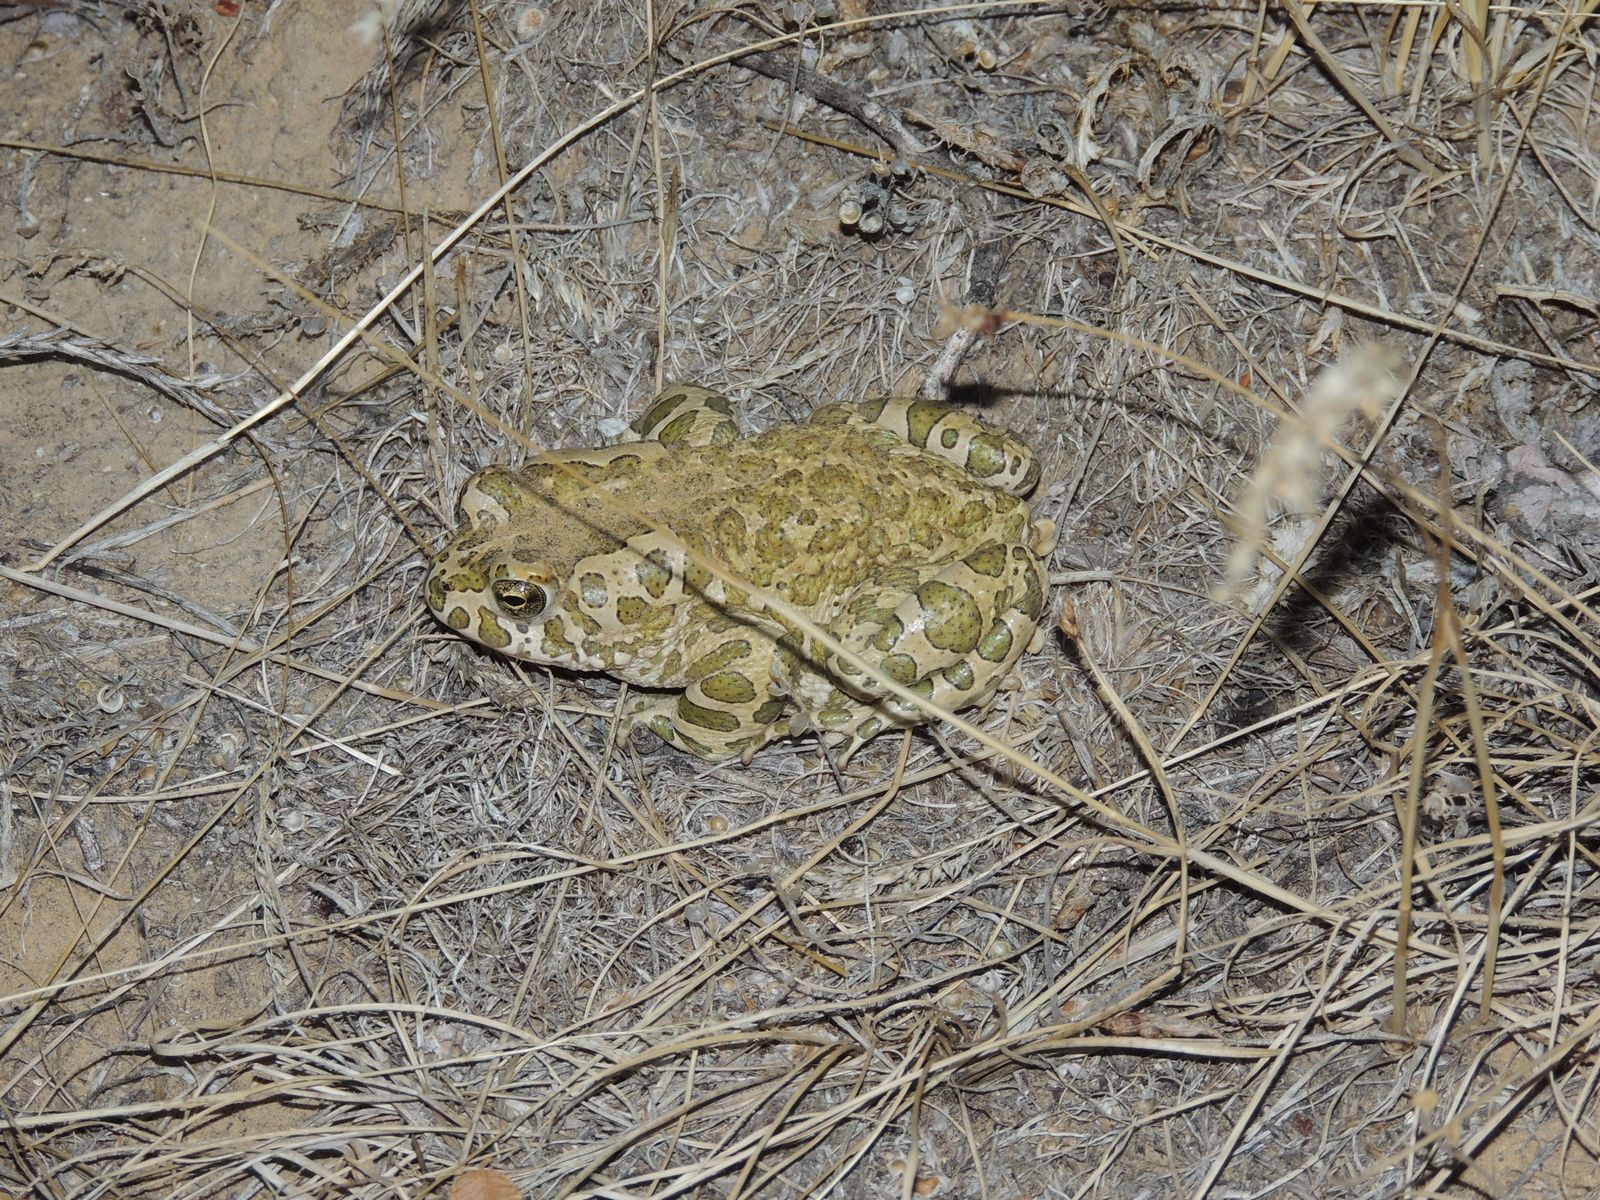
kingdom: Animalia
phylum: Chordata
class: Amphibia
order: Anura
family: Bufonidae
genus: Bufotes
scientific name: Bufotes viridis
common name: European green toad
